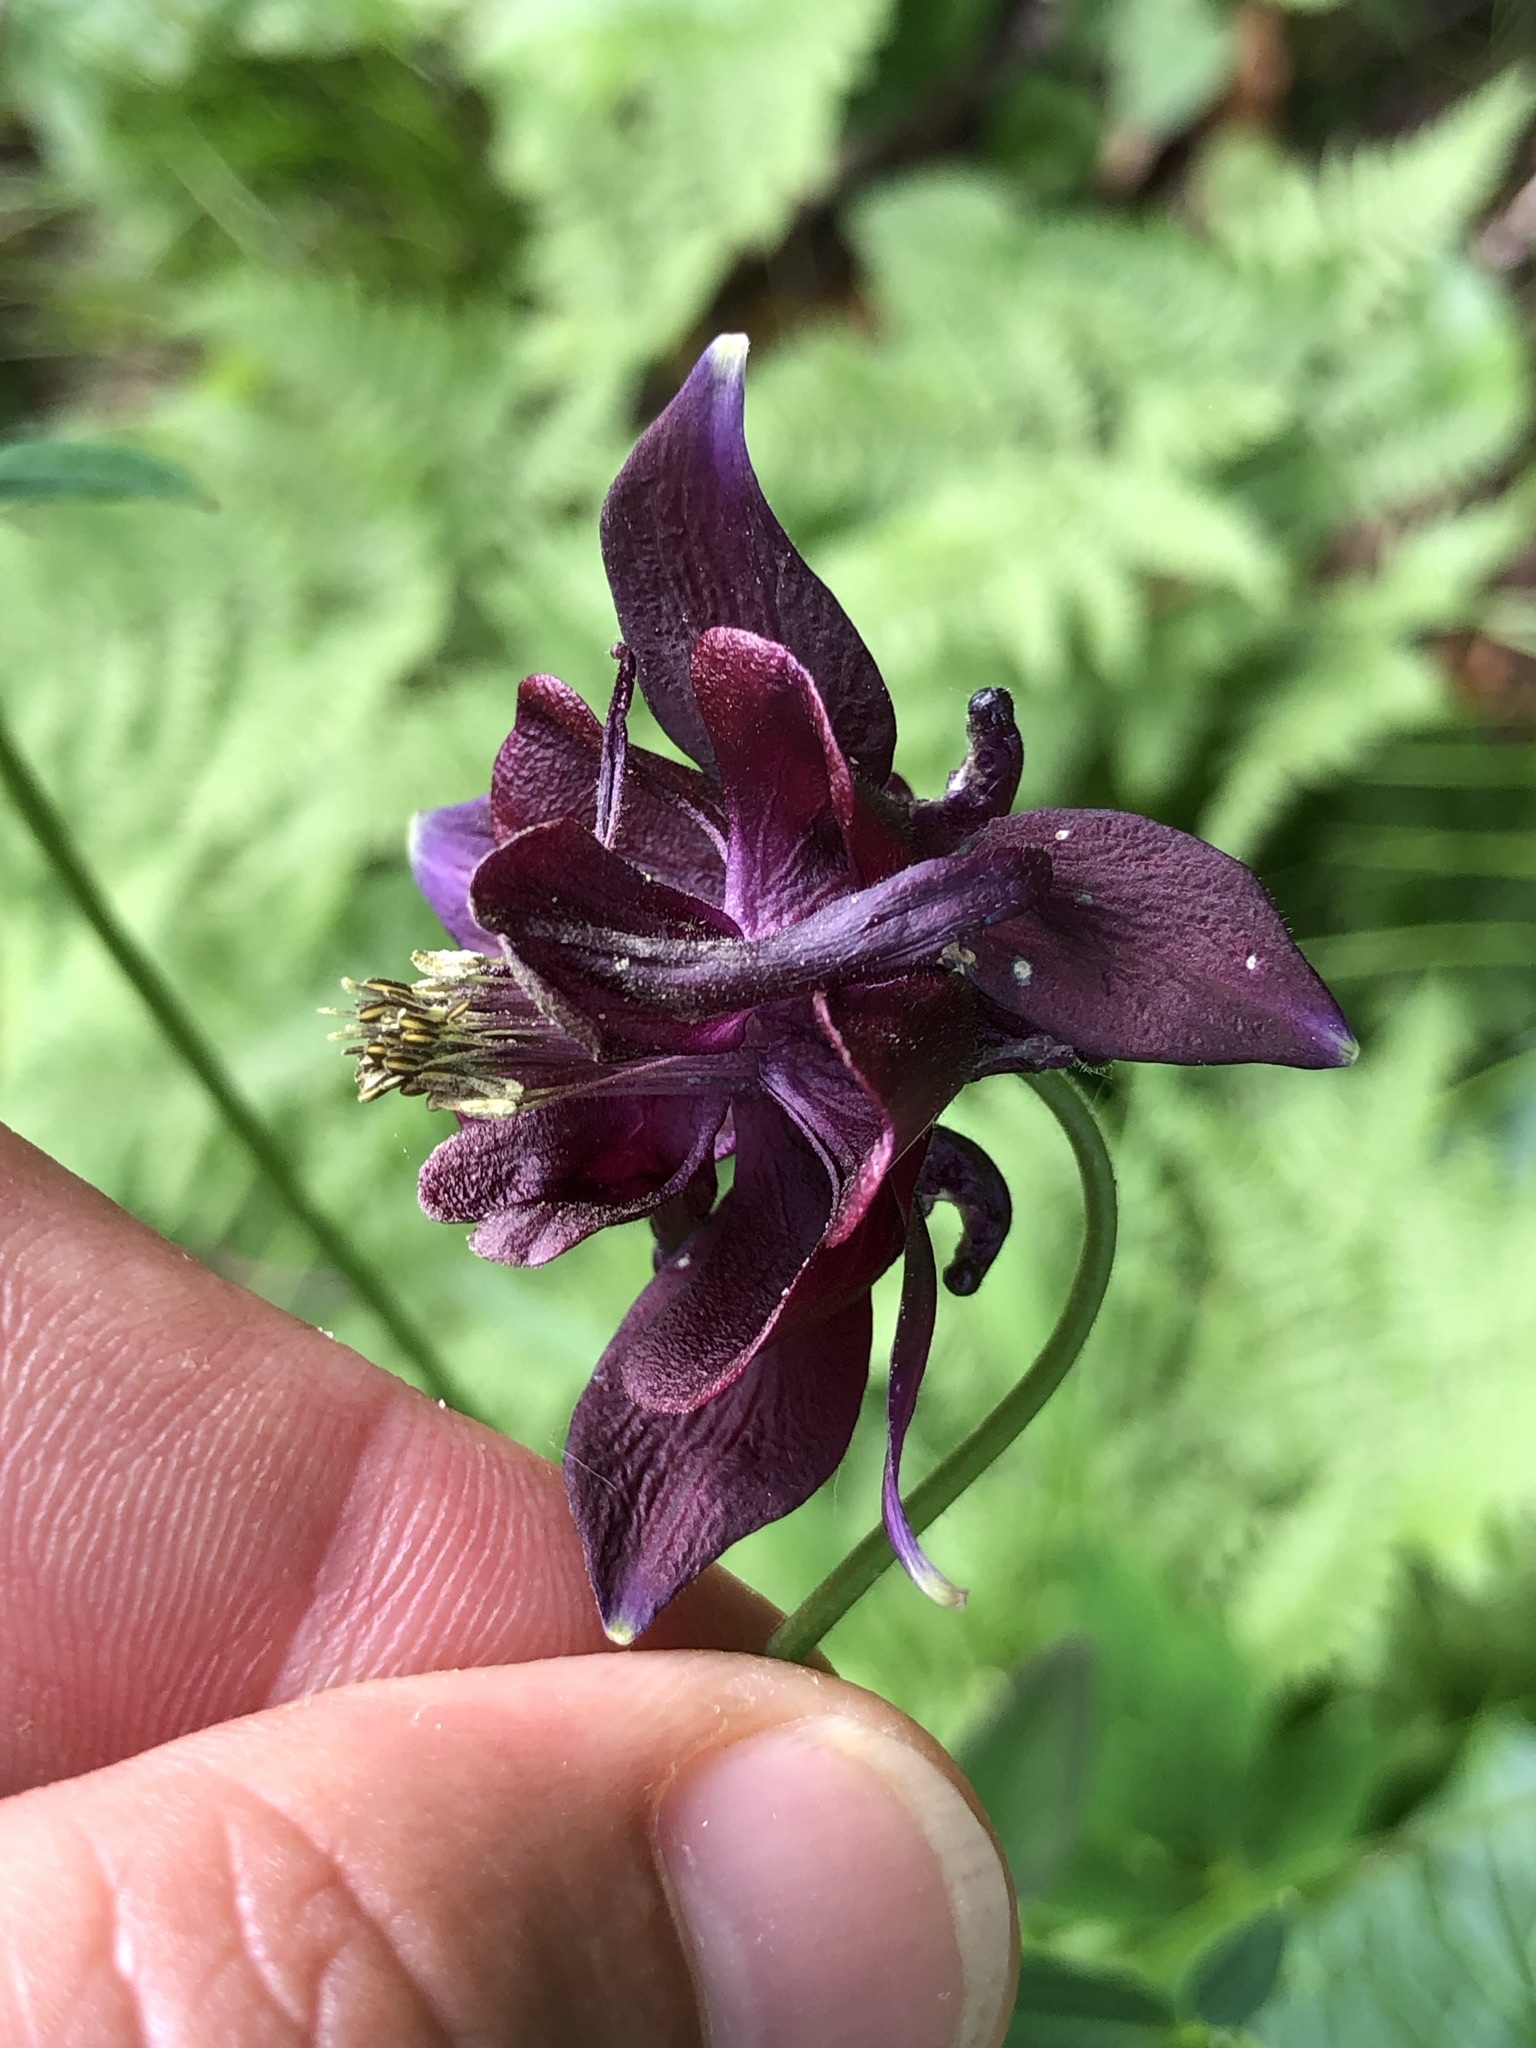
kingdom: Plantae
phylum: Tracheophyta
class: Magnoliopsida
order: Ranunculales
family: Ranunculaceae
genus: Aquilegia
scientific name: Aquilegia atrata
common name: Dark columbine
